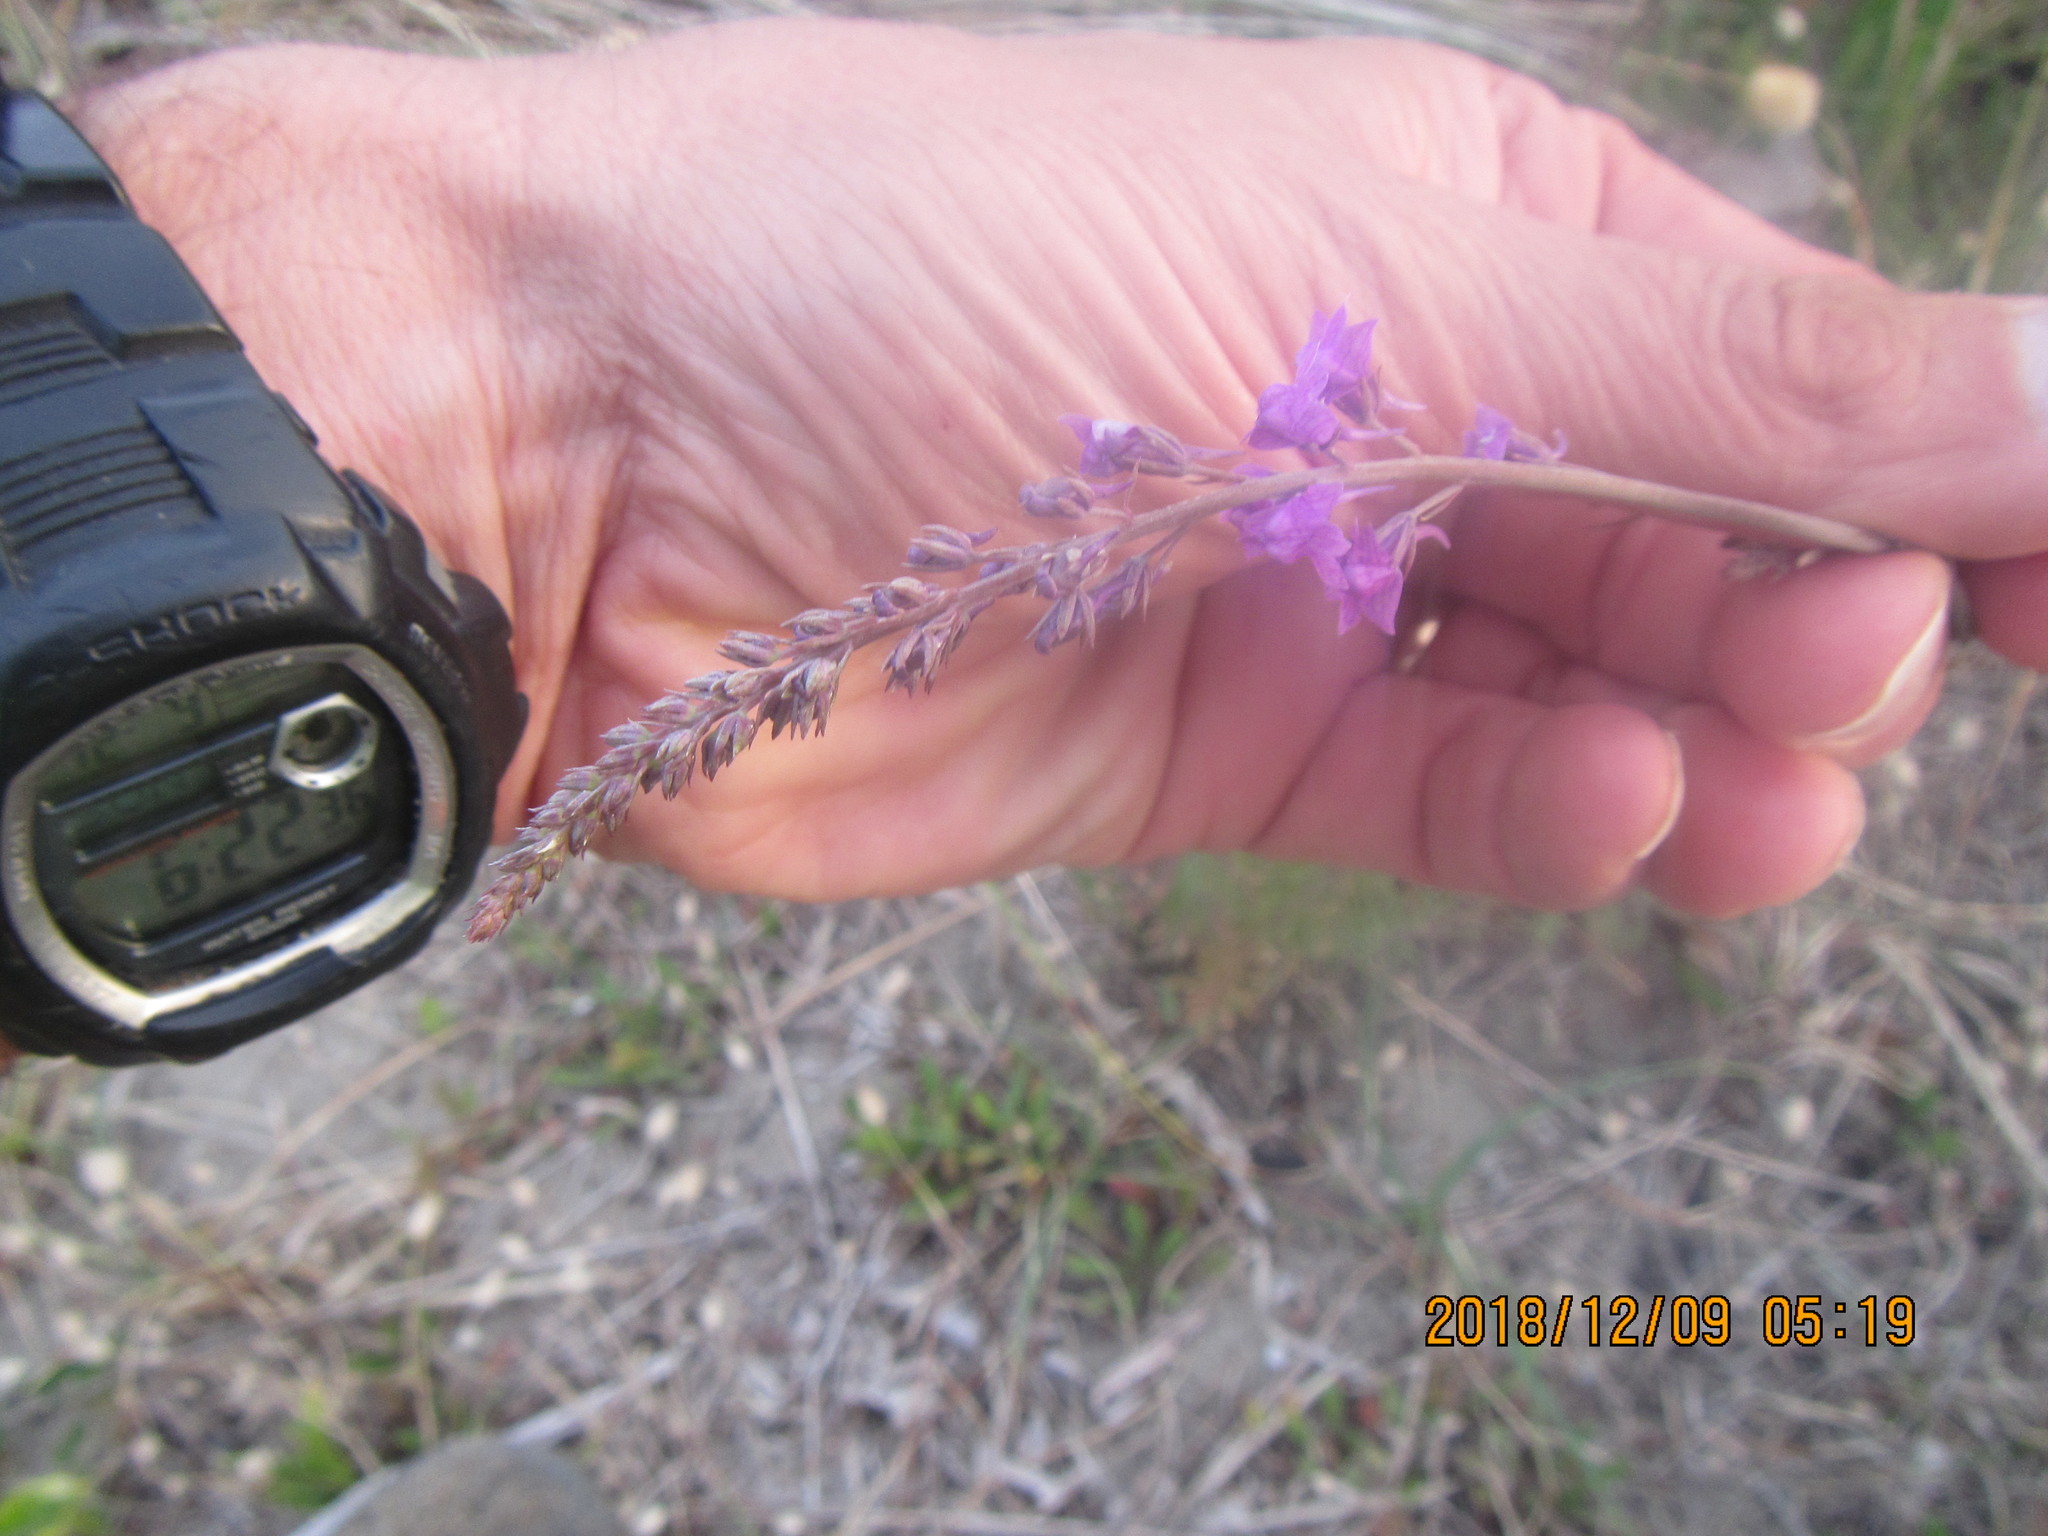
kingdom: Plantae
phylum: Tracheophyta
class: Magnoliopsida
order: Lamiales
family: Plantaginaceae
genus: Linaria
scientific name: Linaria purpurea
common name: Purple toadflax
